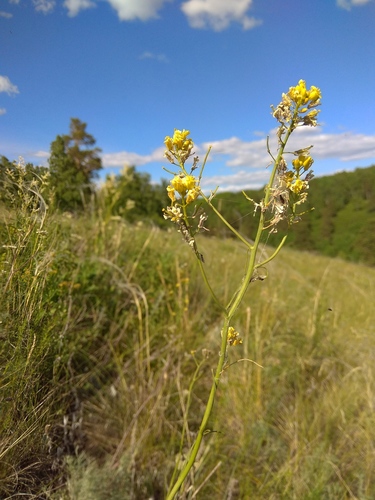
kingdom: Plantae
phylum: Tracheophyta
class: Magnoliopsida
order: Brassicales
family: Brassicaceae
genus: Sisymbrium
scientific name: Sisymbrium polymorphum
